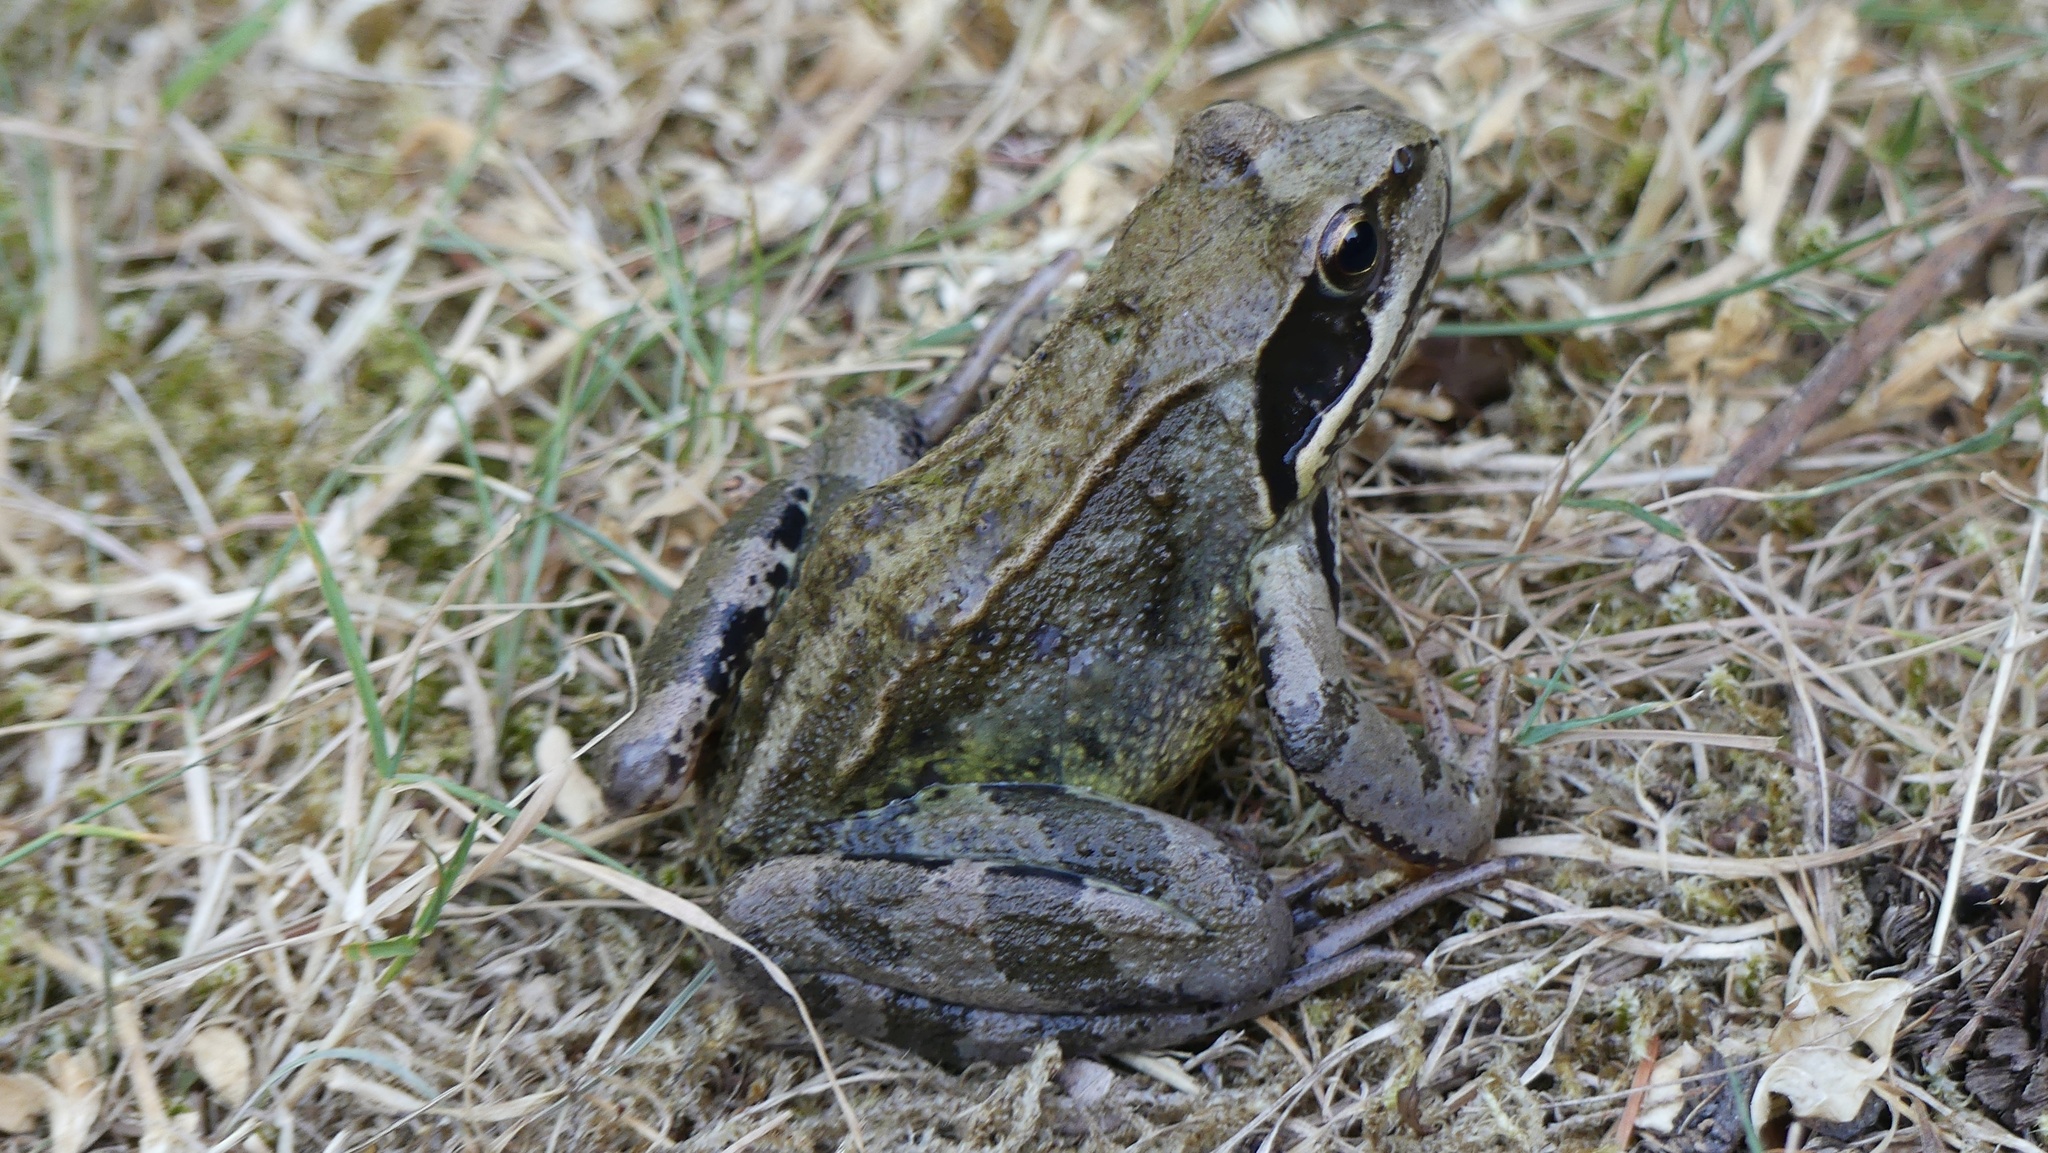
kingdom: Animalia
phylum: Chordata
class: Amphibia
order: Anura
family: Ranidae
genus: Rana
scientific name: Rana temporaria
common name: Common frog
